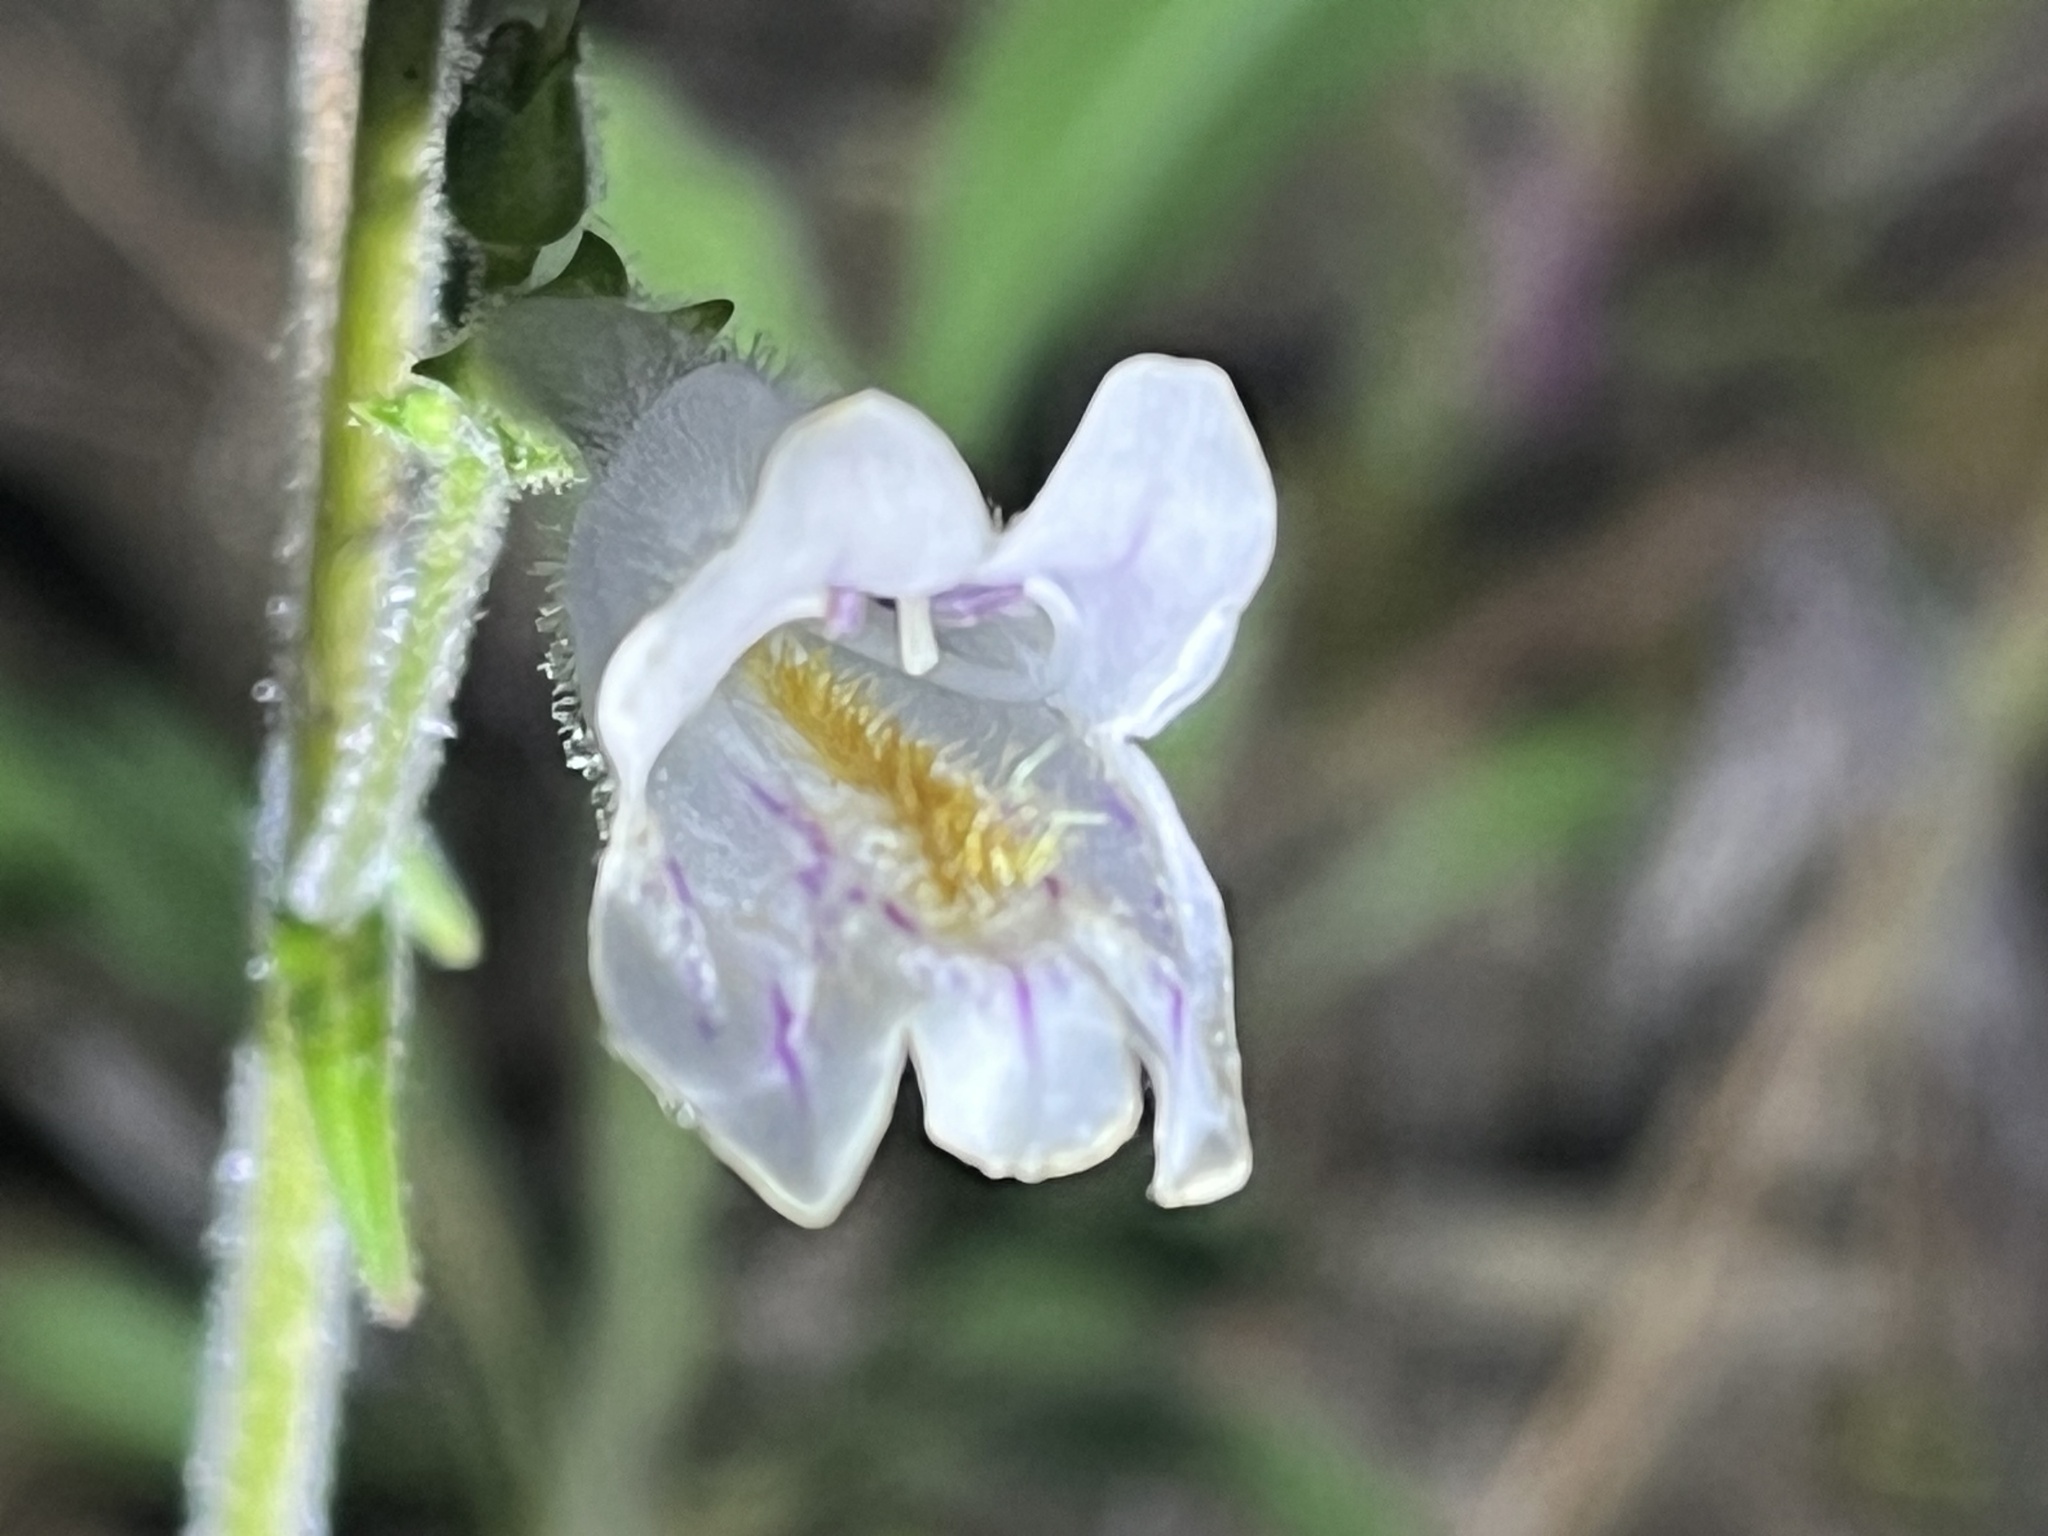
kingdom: Plantae
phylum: Tracheophyta
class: Magnoliopsida
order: Lamiales
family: Plantaginaceae
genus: Penstemon
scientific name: Penstemon canescens
